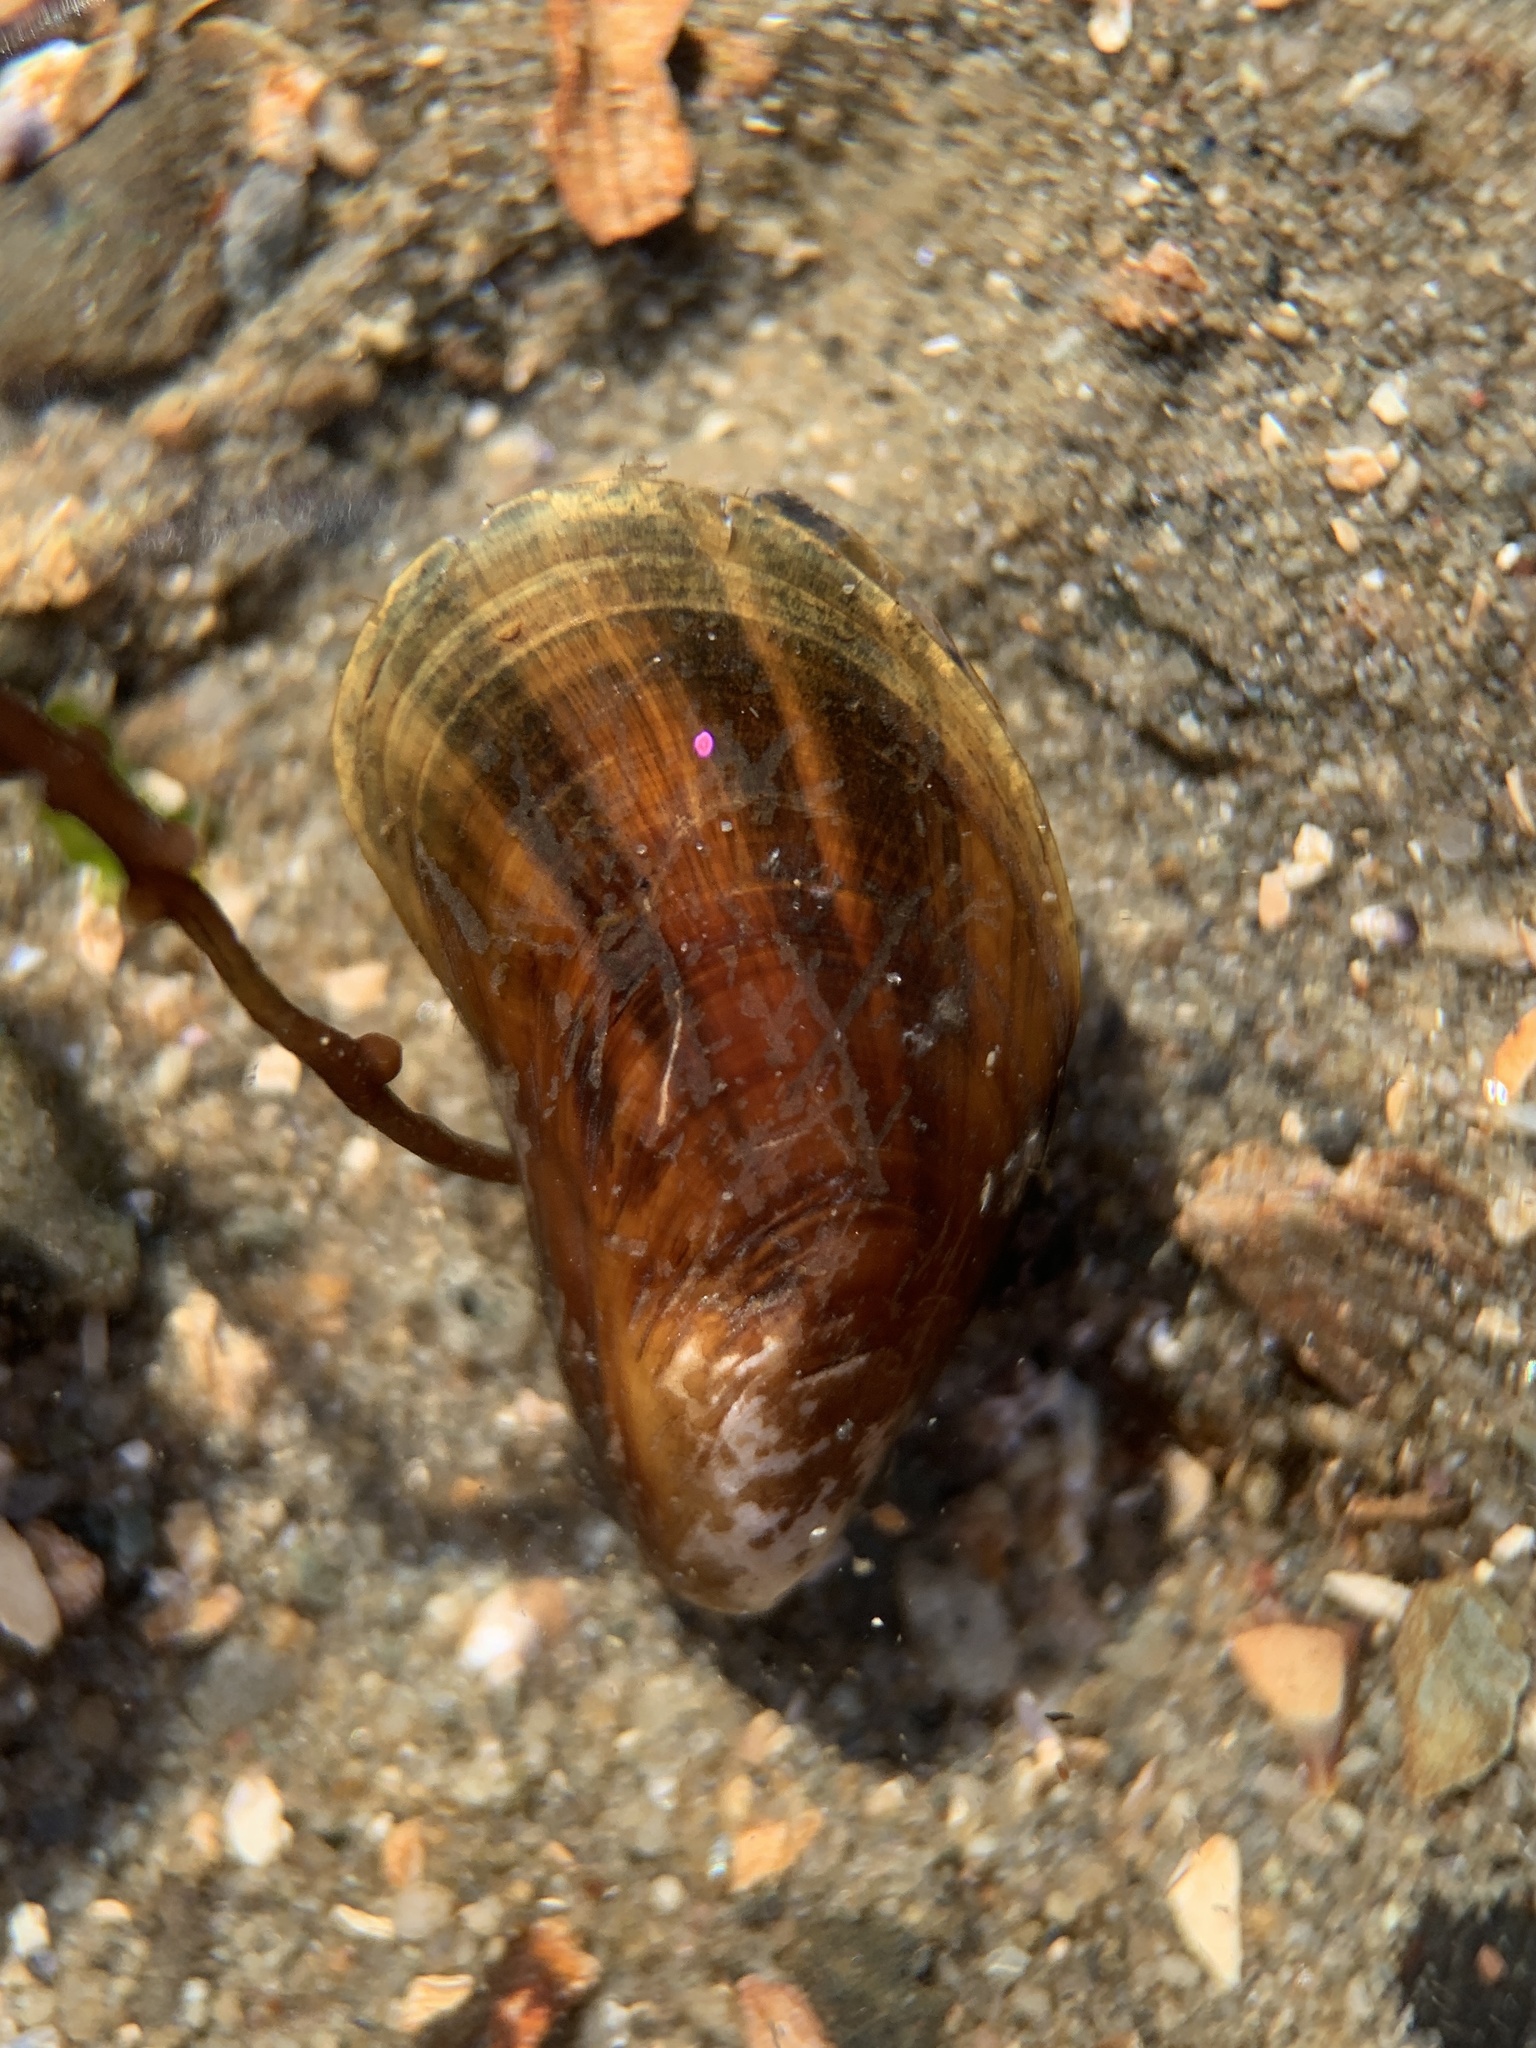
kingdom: Animalia
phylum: Mollusca
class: Bivalvia
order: Mytilida
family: Mytilidae
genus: Mytilus
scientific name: Mytilus edulis
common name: Blue mussel
